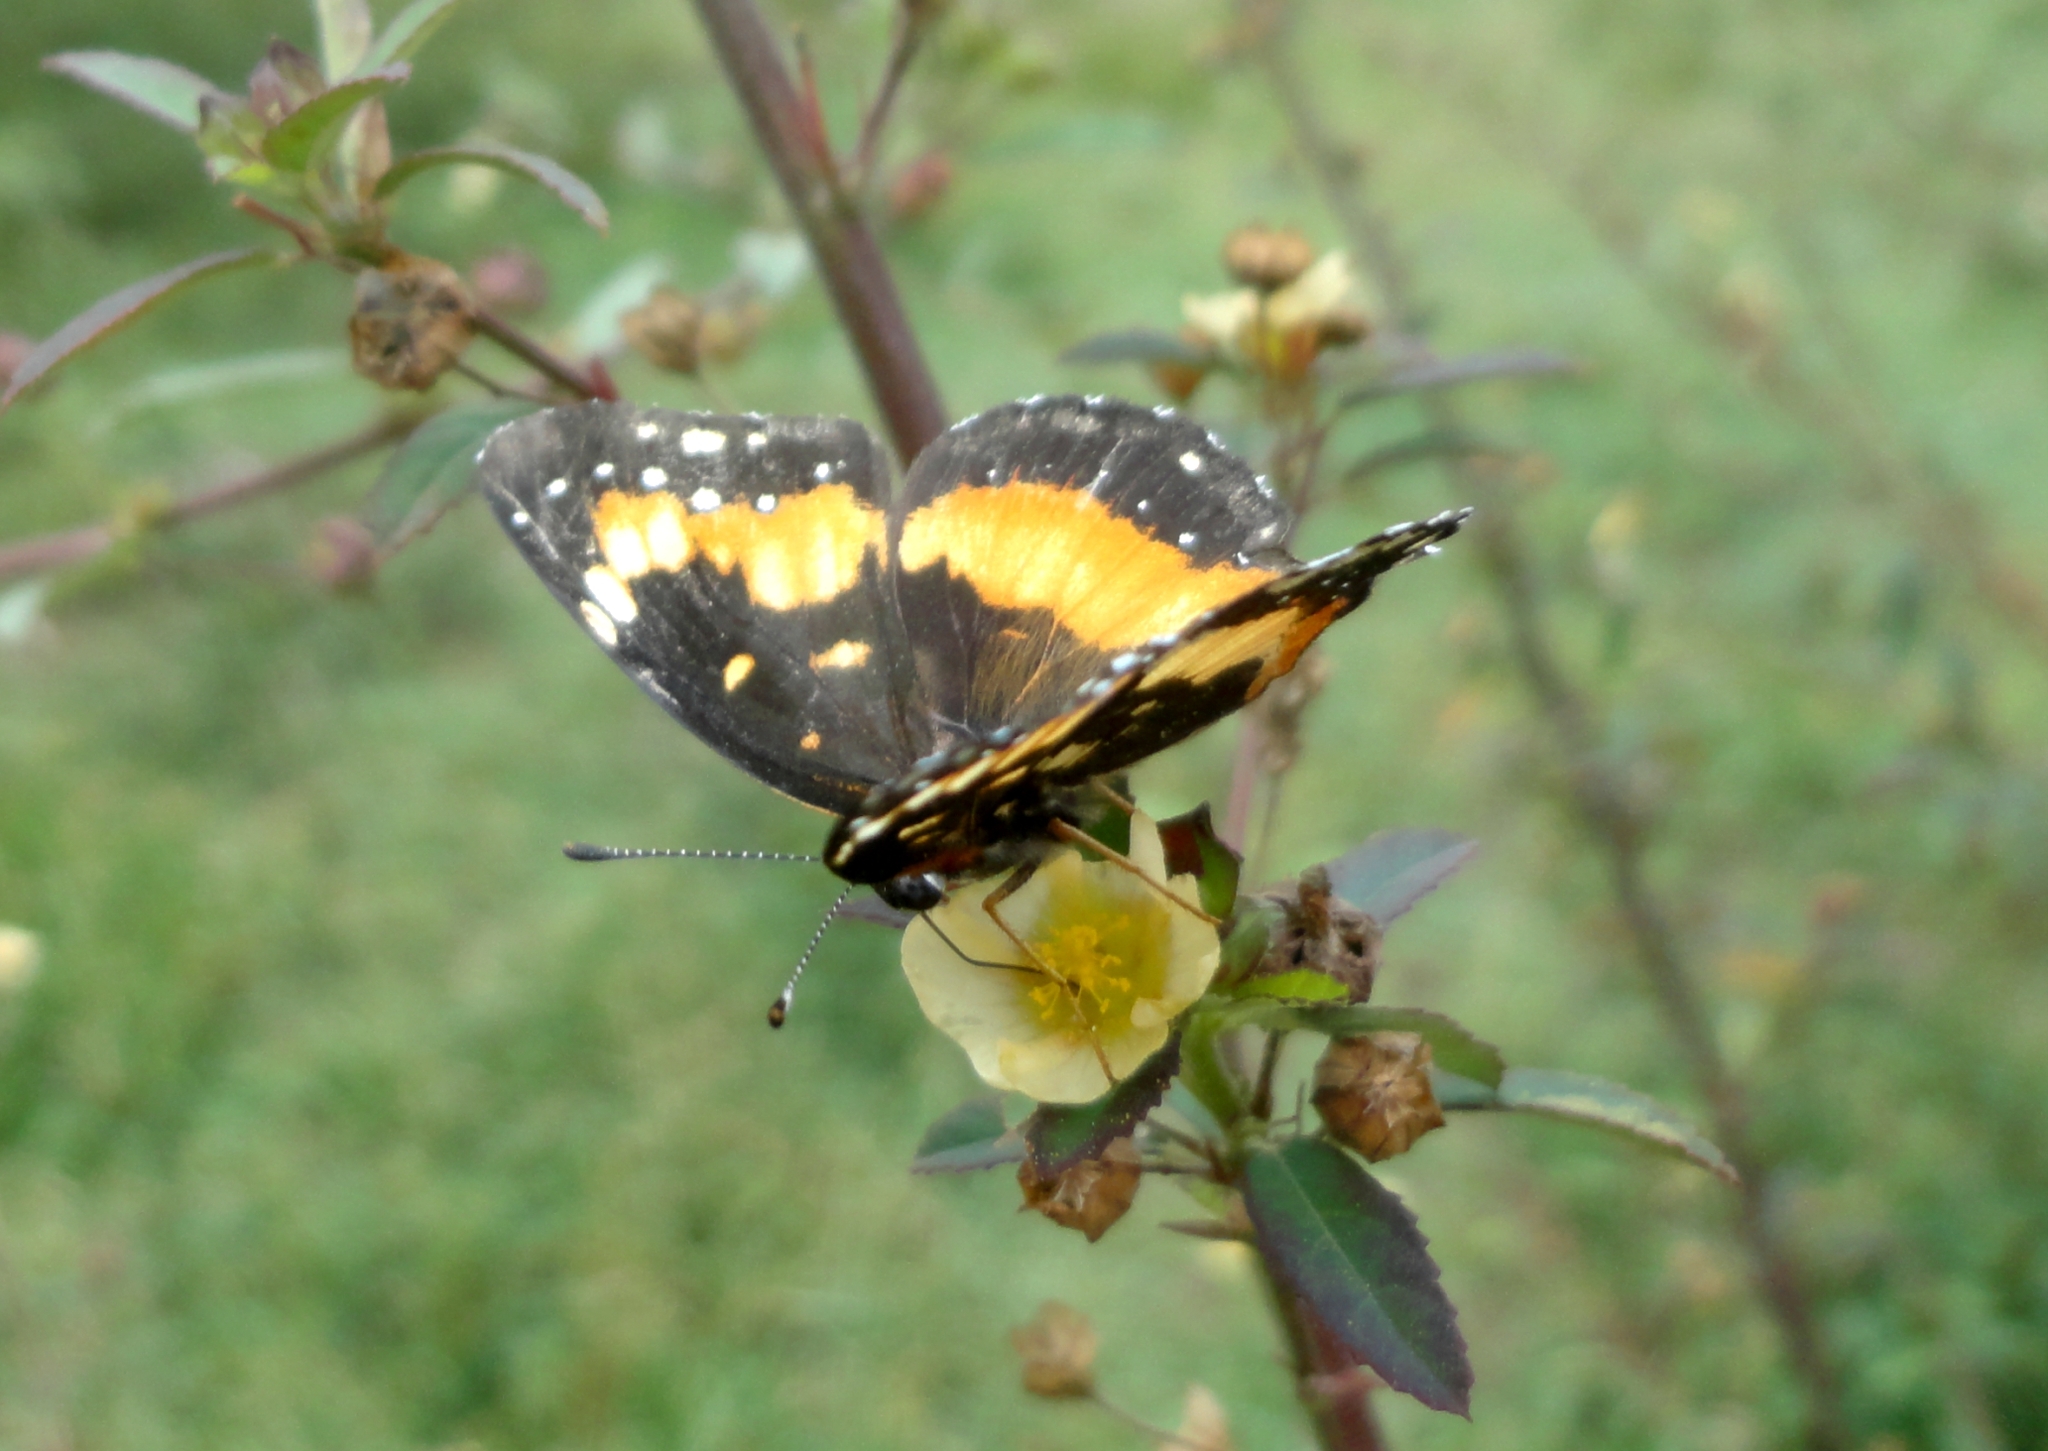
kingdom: Animalia
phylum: Arthropoda
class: Insecta
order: Lepidoptera
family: Nymphalidae
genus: Chlosyne
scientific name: Chlosyne lacinia
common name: Bordered patch
